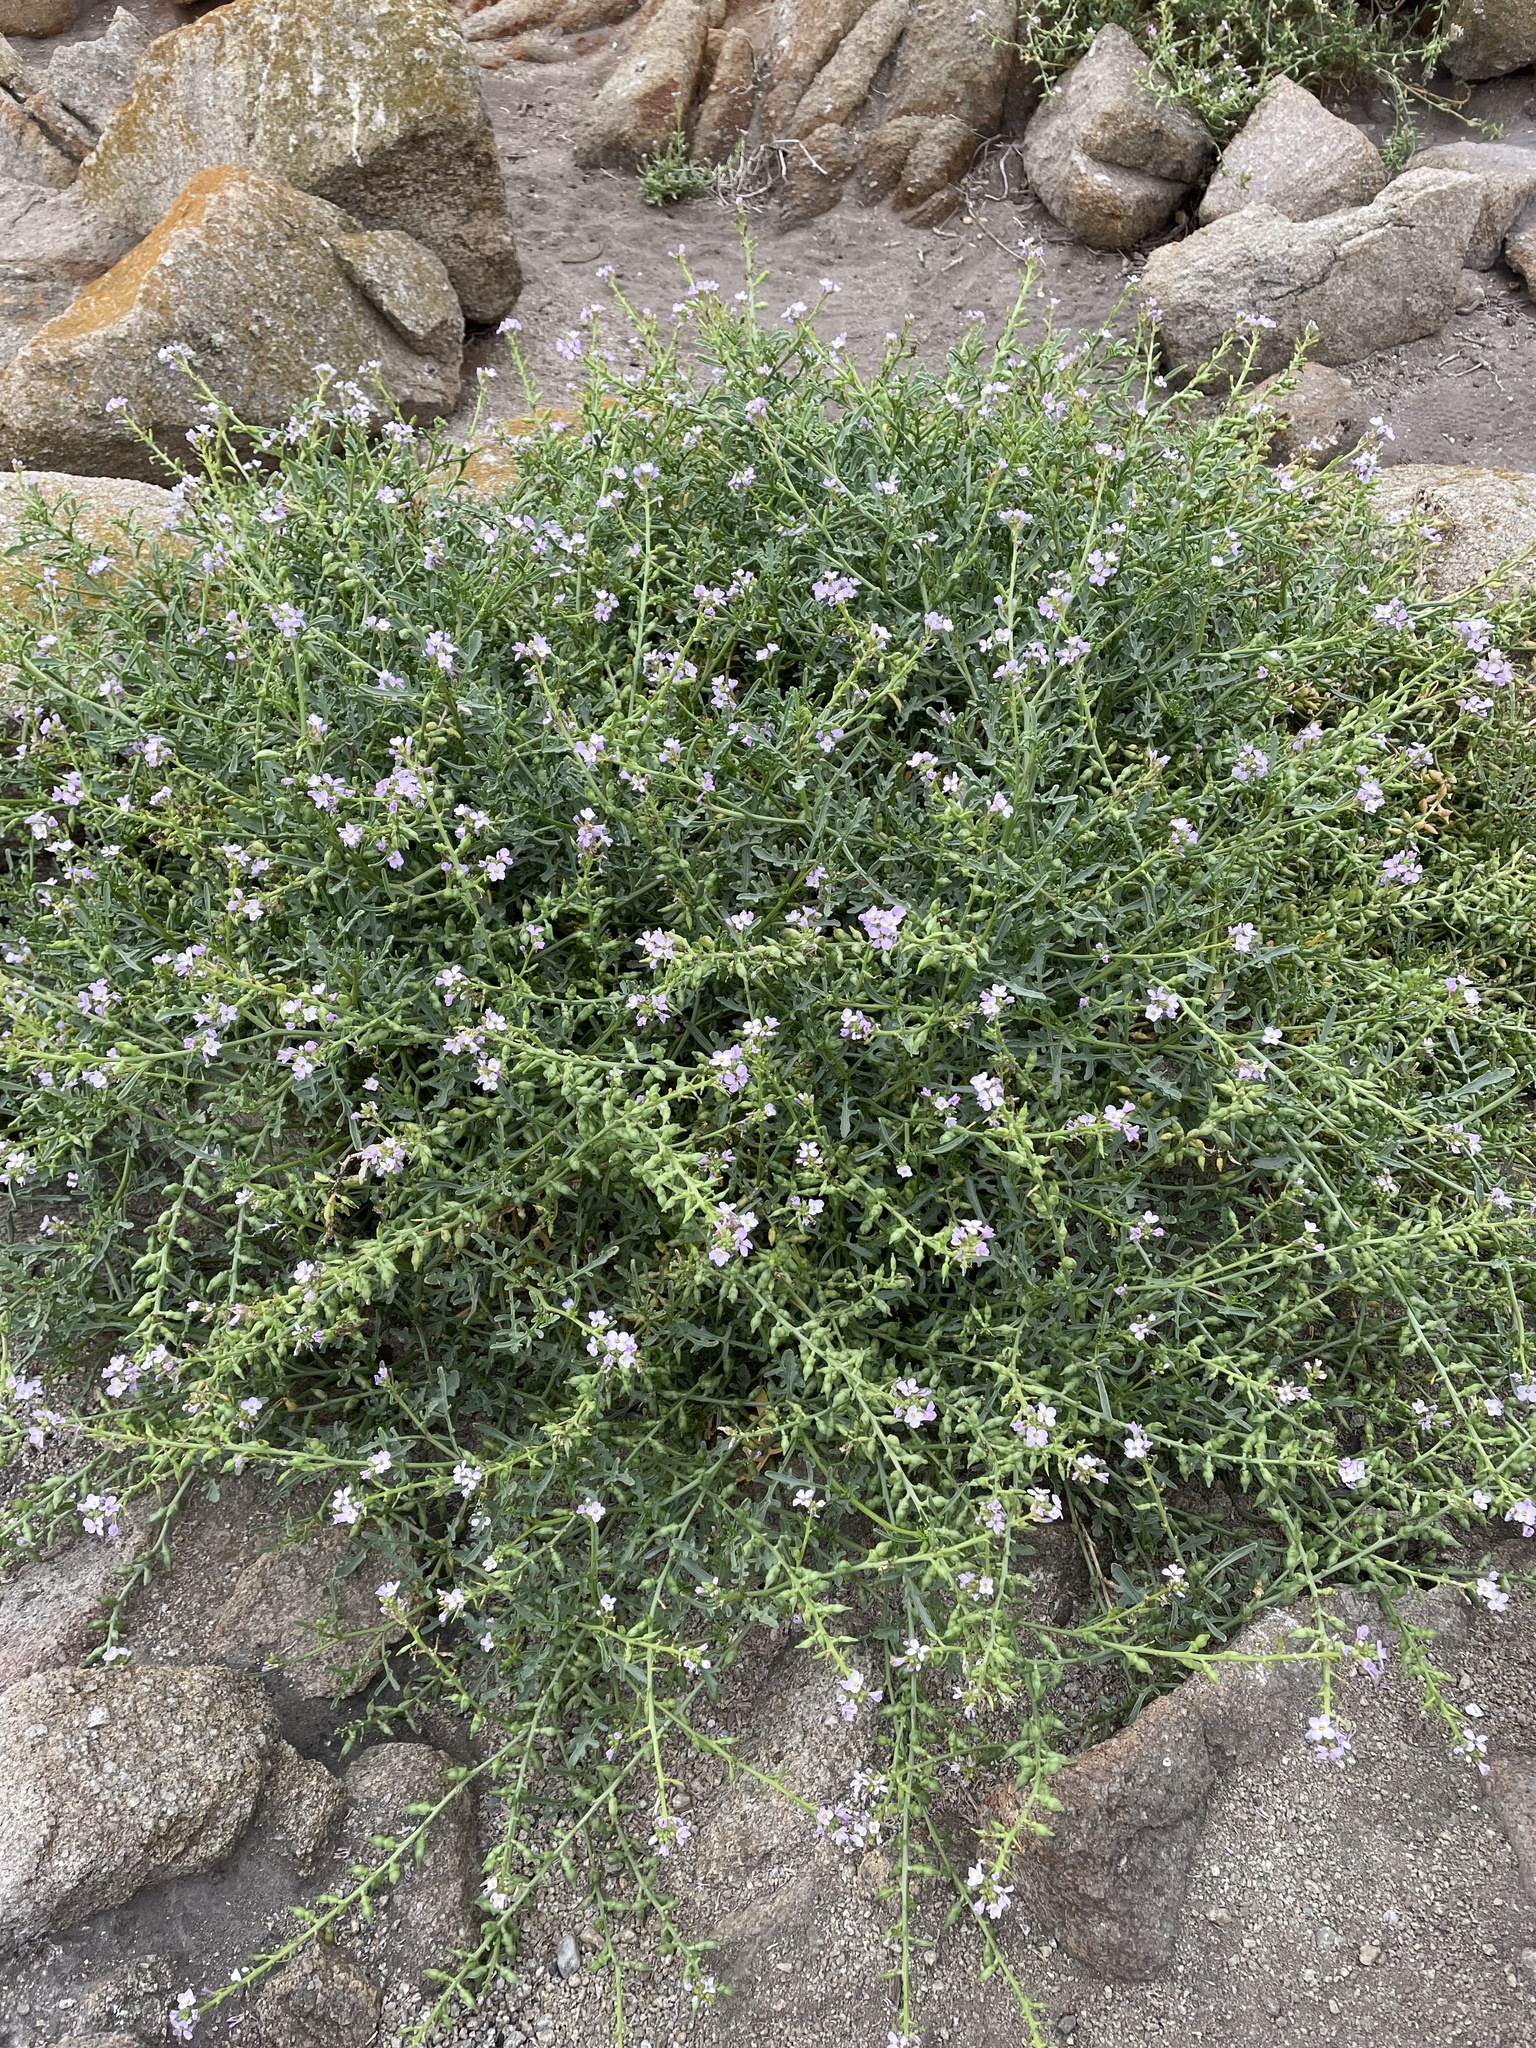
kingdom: Plantae
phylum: Tracheophyta
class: Magnoliopsida
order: Brassicales
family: Brassicaceae
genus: Cakile
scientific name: Cakile maritima
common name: Sea rocket
